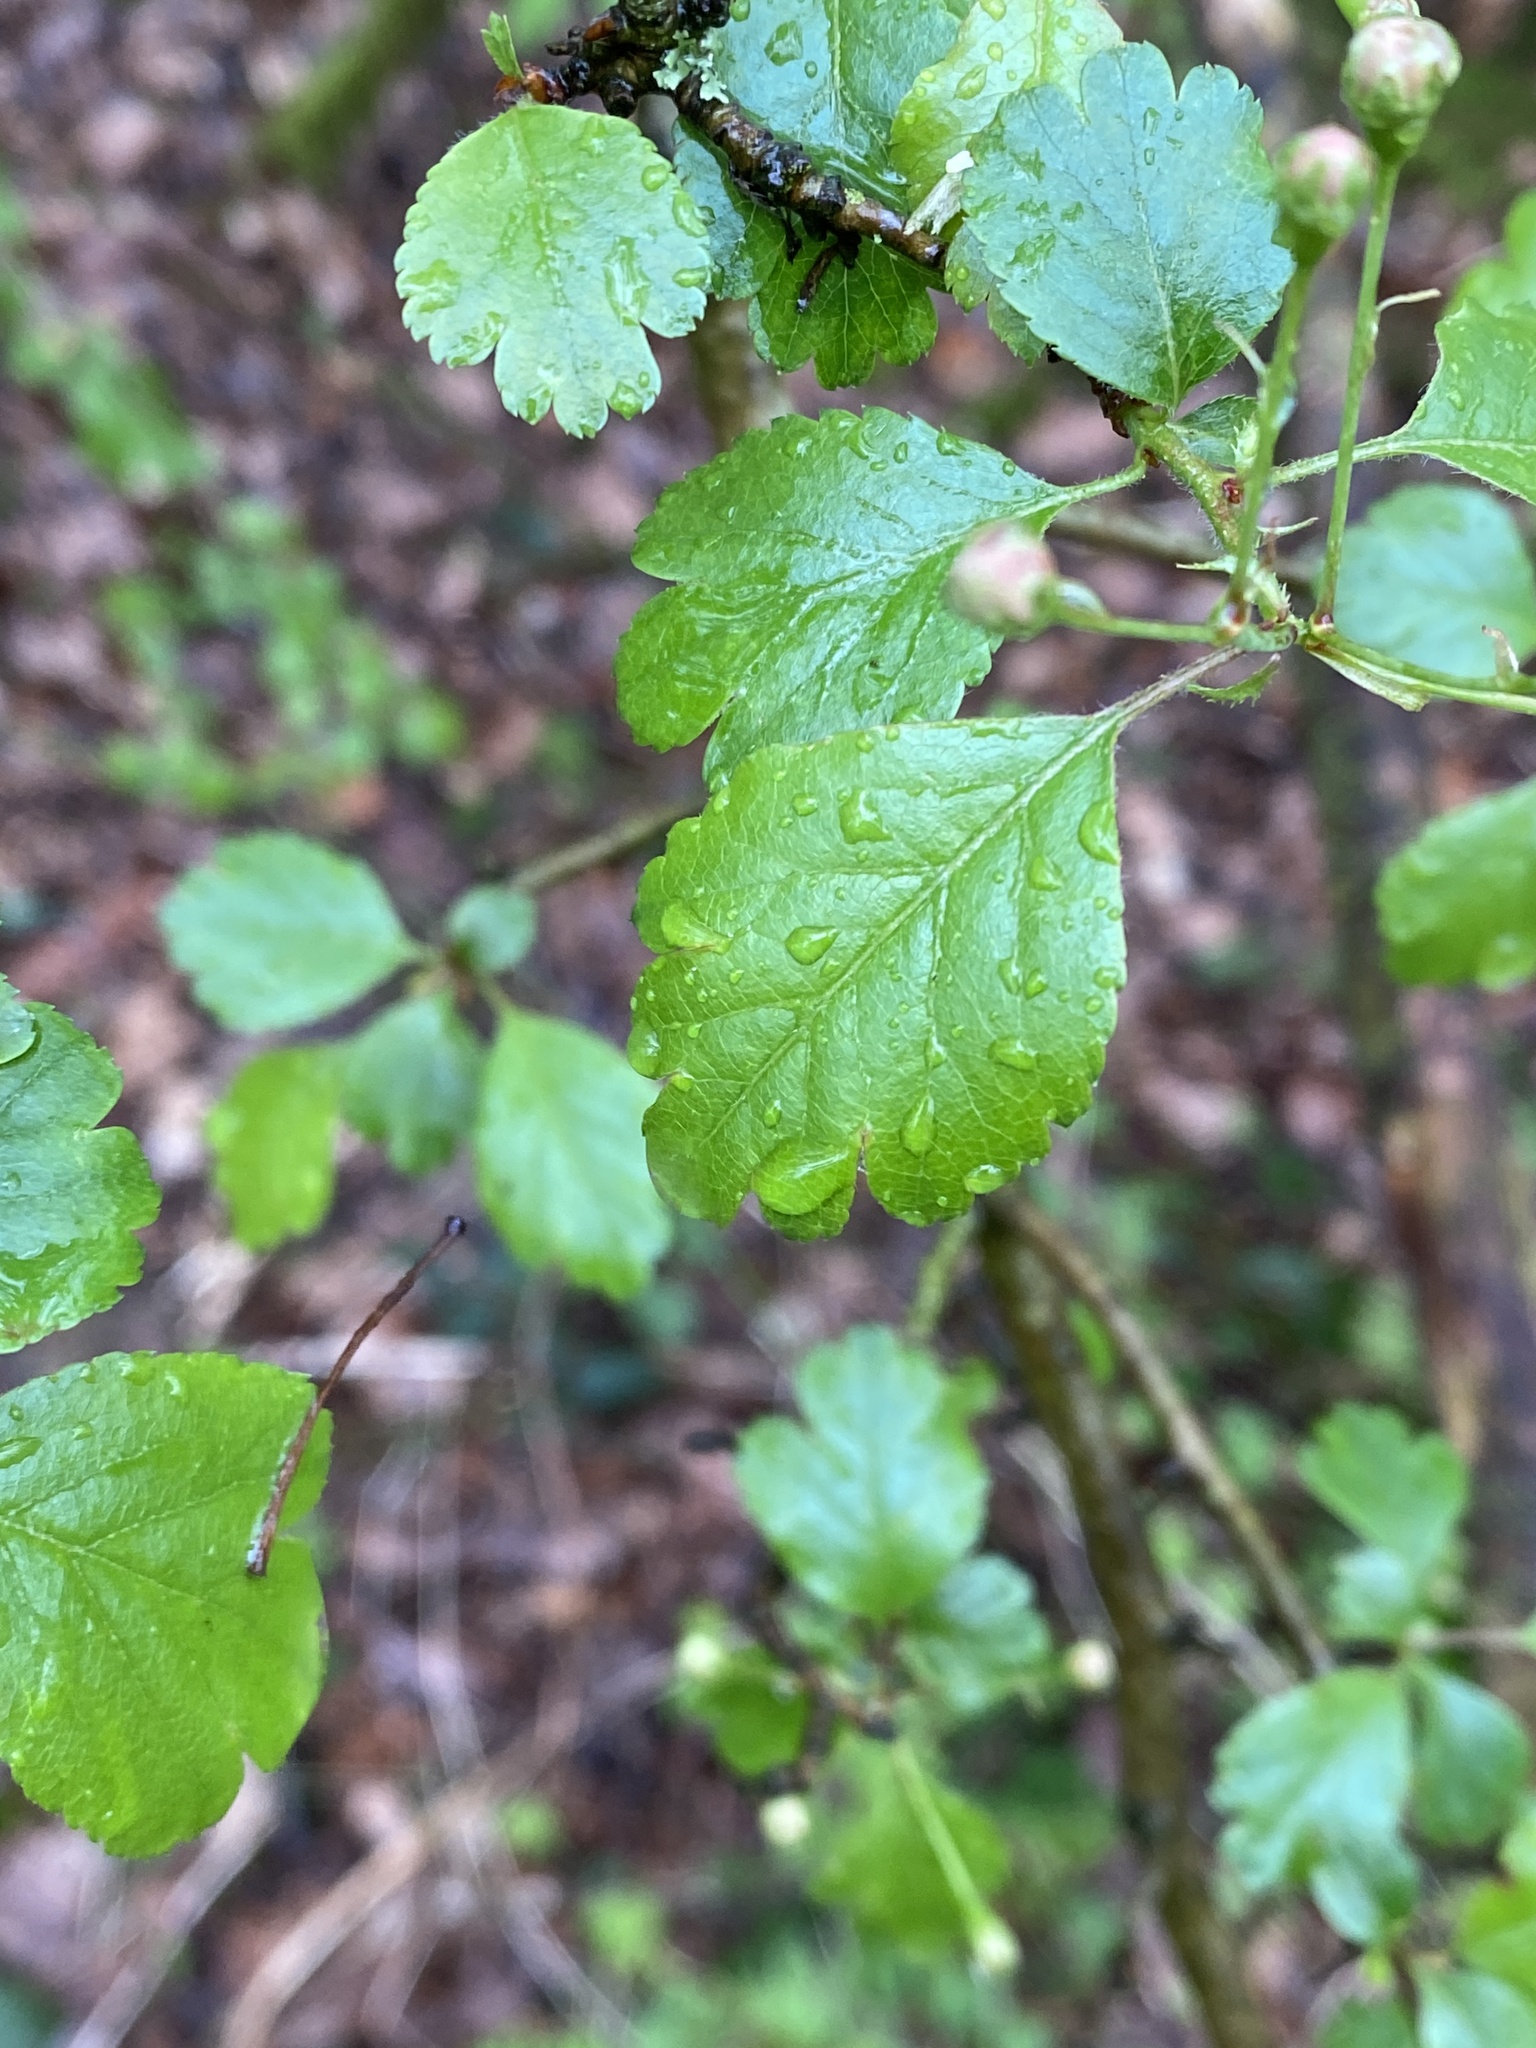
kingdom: Plantae
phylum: Tracheophyta
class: Magnoliopsida
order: Rosales
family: Rosaceae
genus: Crataegus
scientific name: Crataegus laevigata
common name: Midland hawthorn
